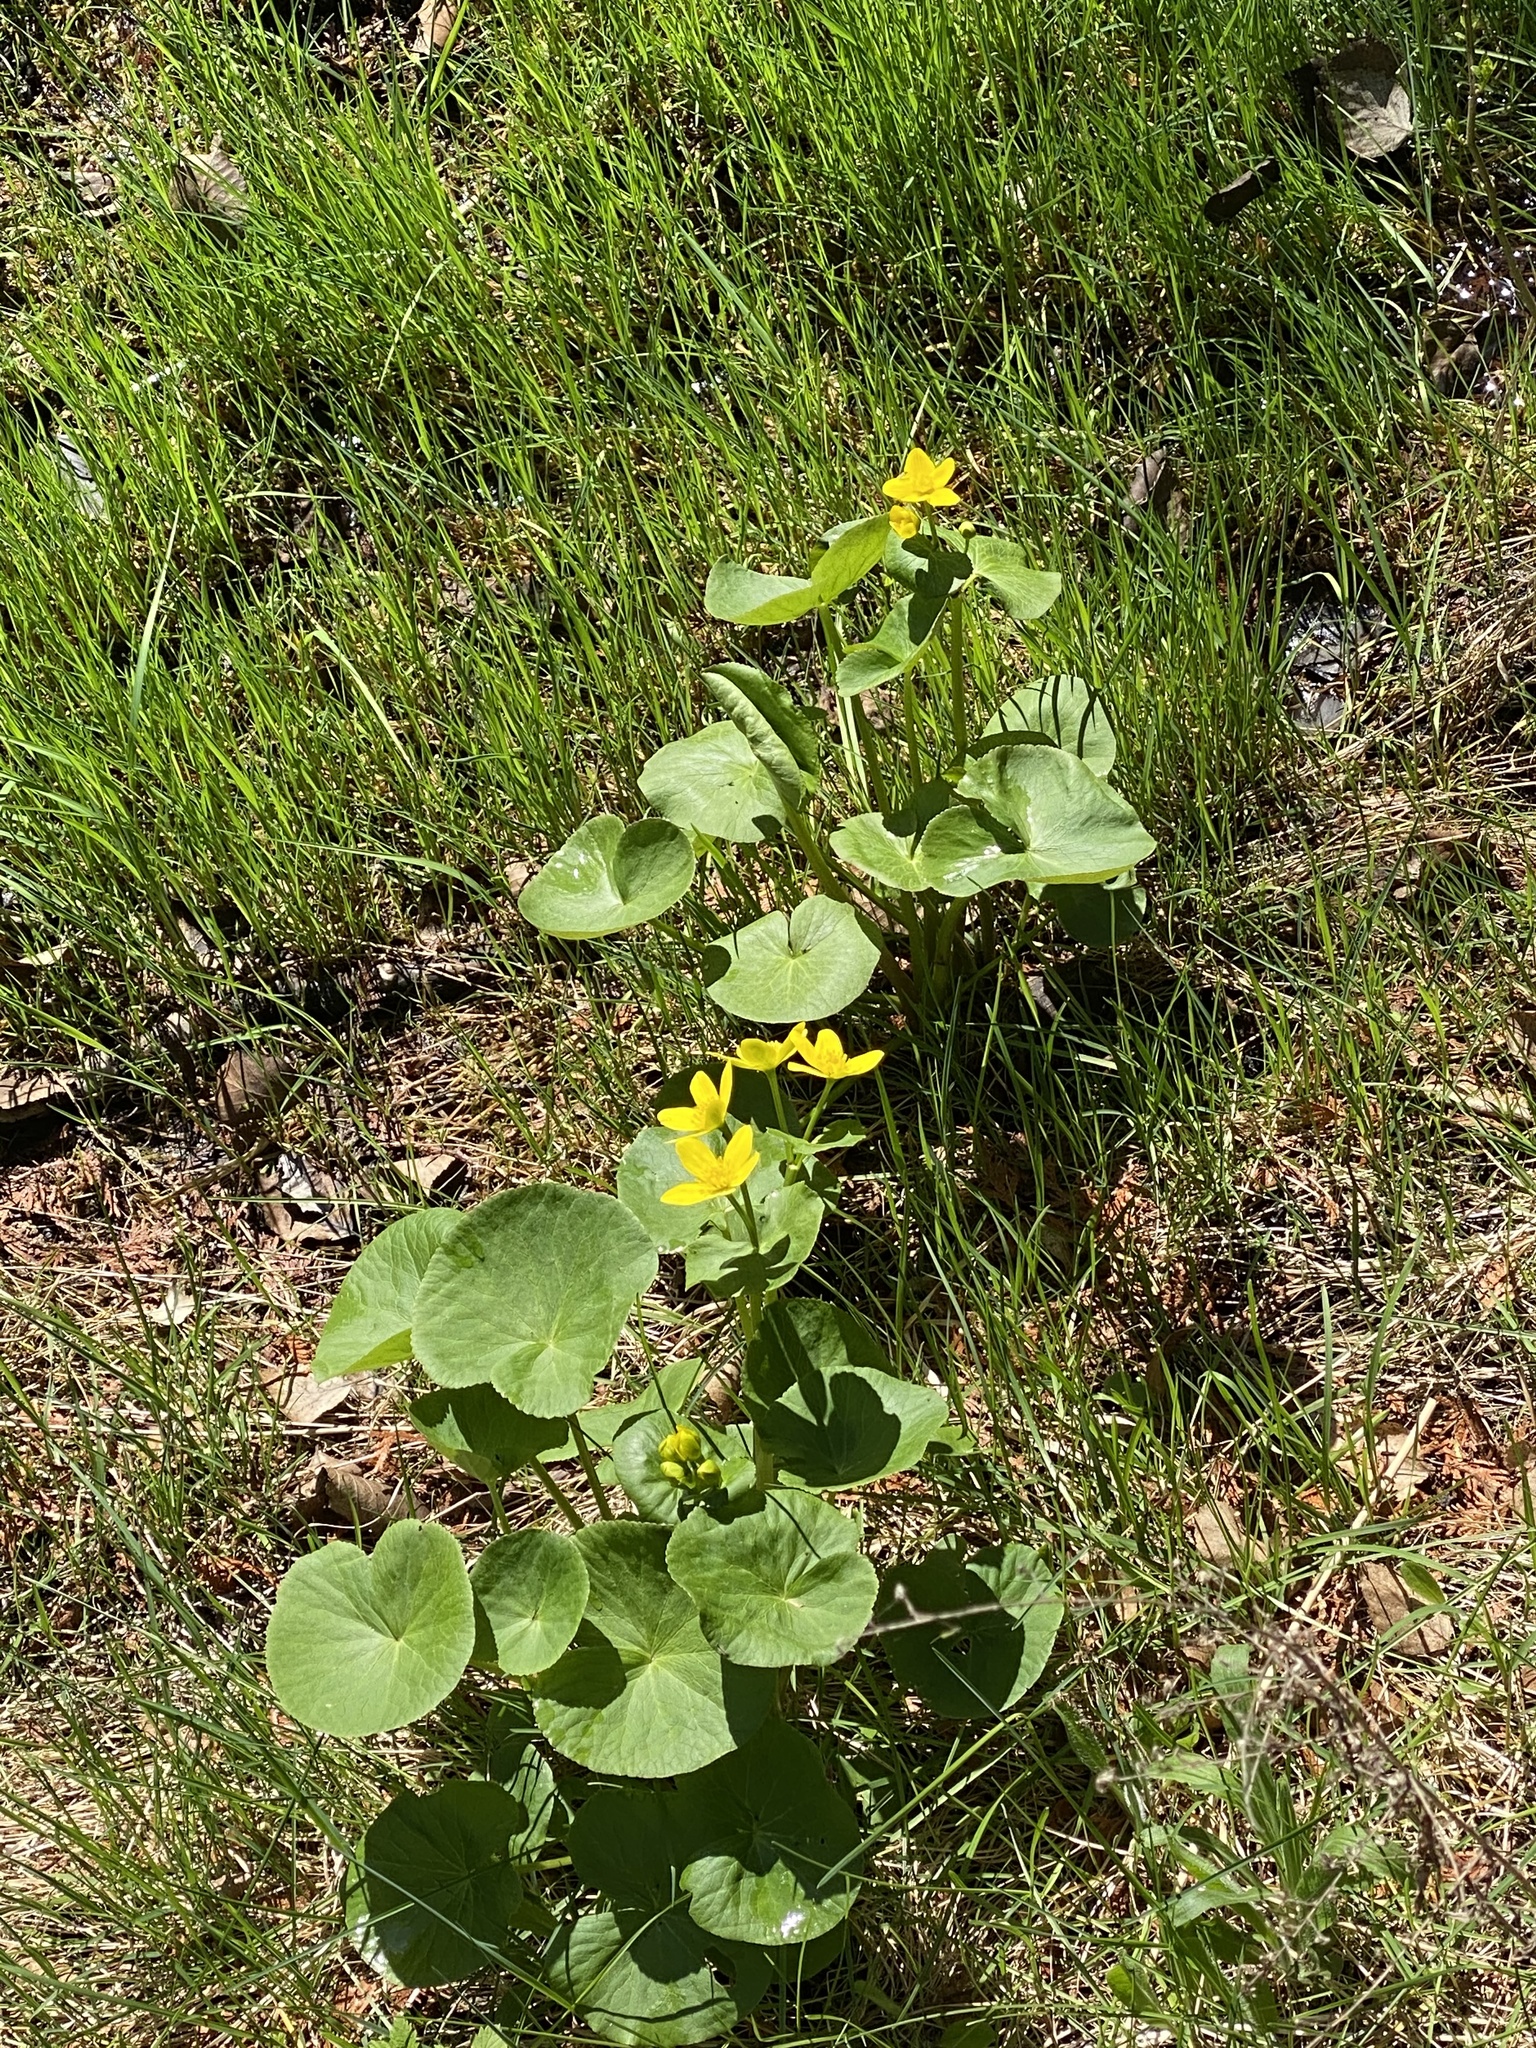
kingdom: Plantae
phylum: Tracheophyta
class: Magnoliopsida
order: Ranunculales
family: Ranunculaceae
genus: Caltha
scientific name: Caltha palustris
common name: Marsh marigold
